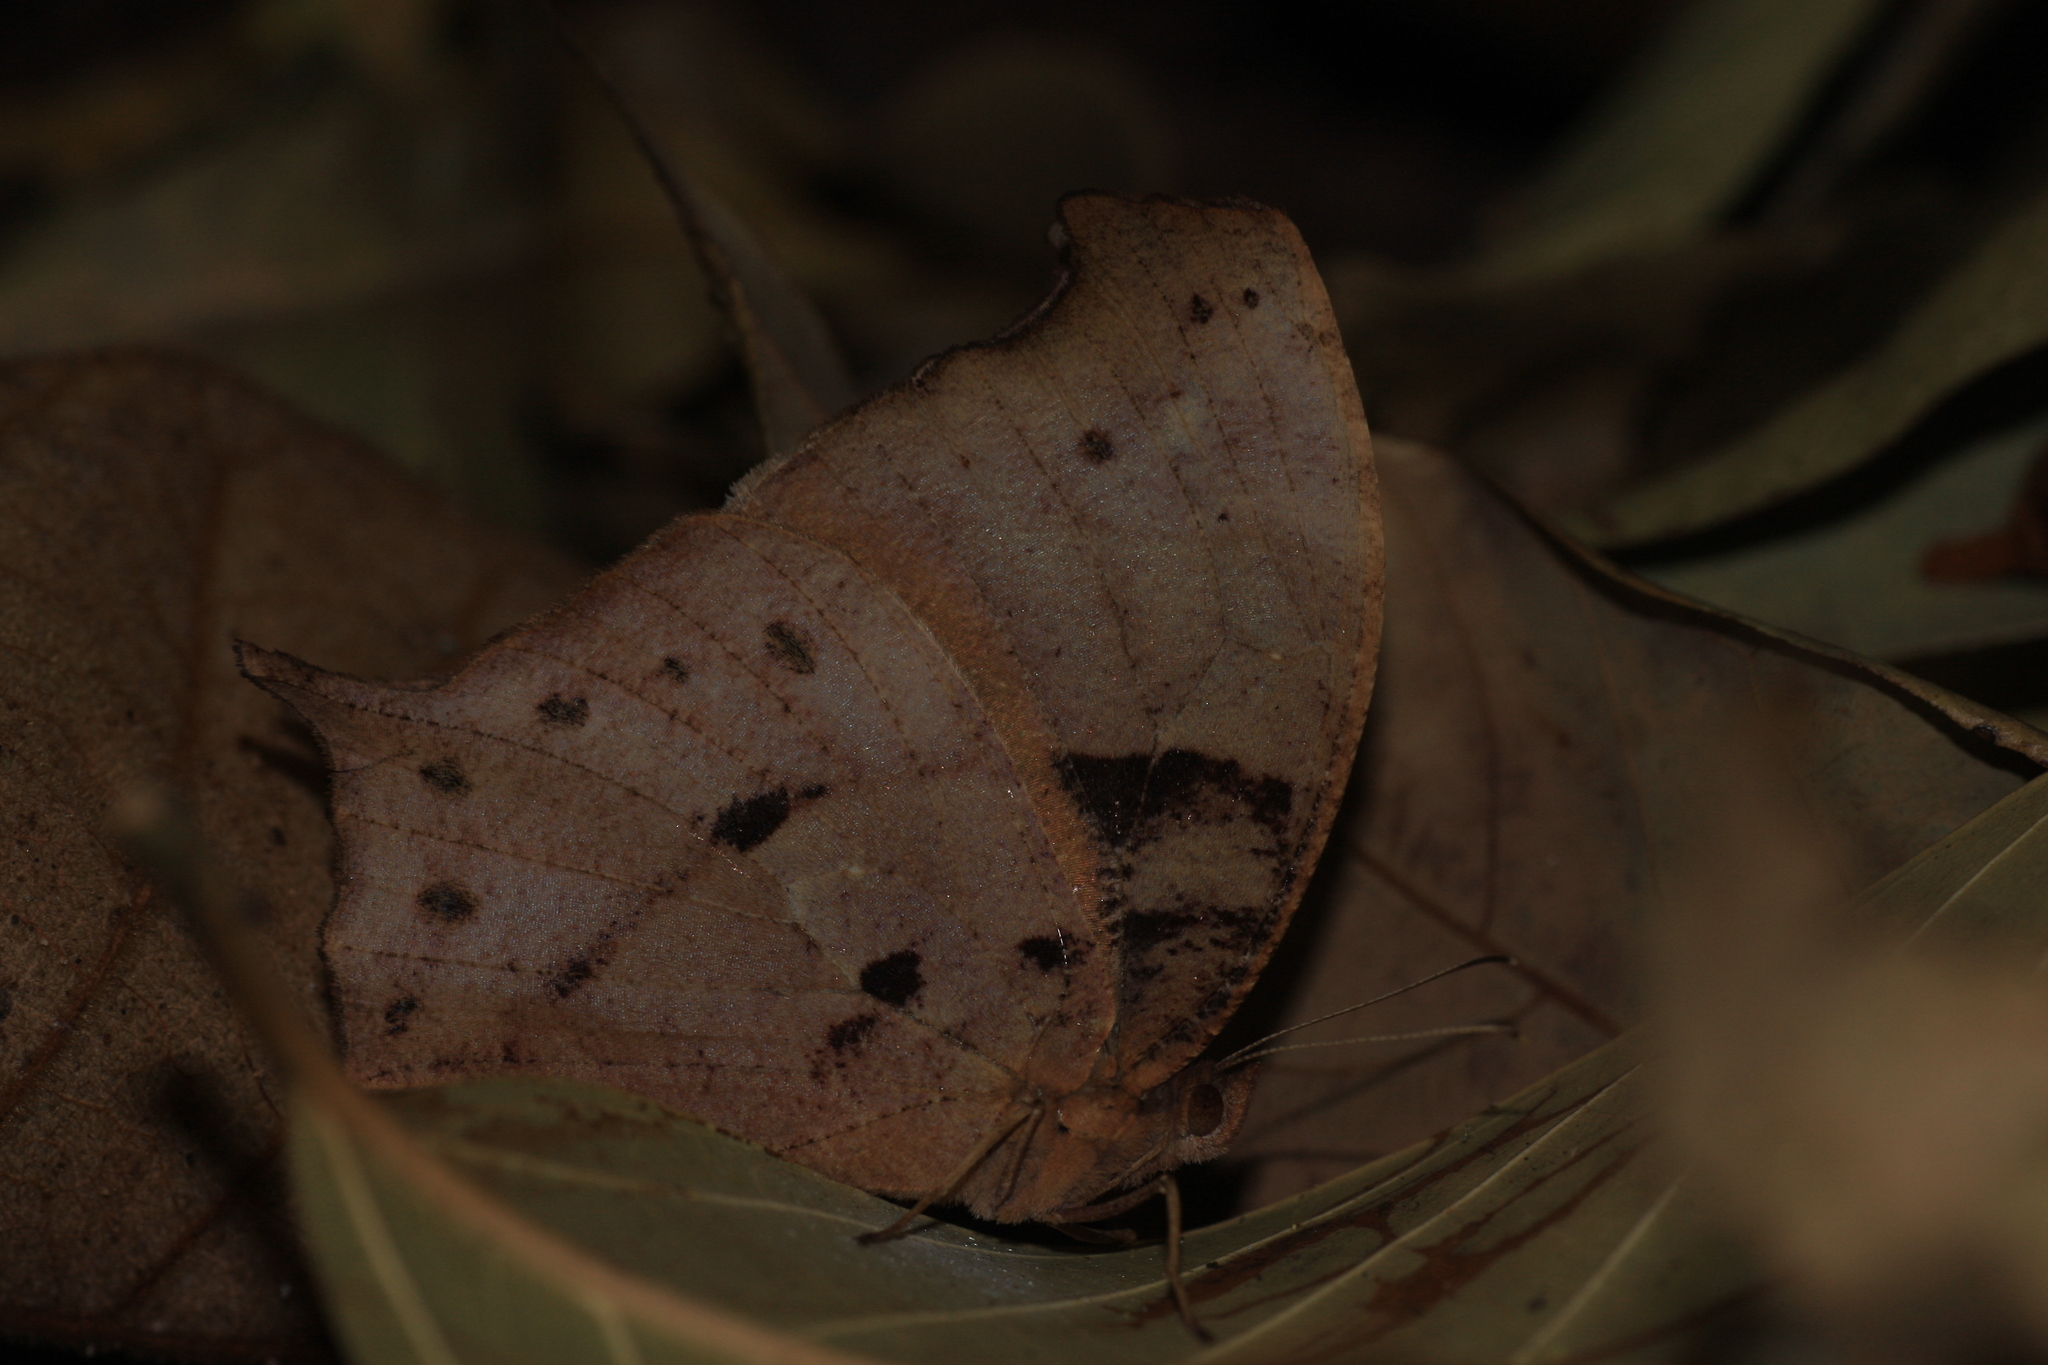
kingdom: Animalia
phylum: Arthropoda
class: Insecta
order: Lepidoptera
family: Nymphalidae
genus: Melanitis
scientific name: Melanitis phedima
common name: Dark evening brown
